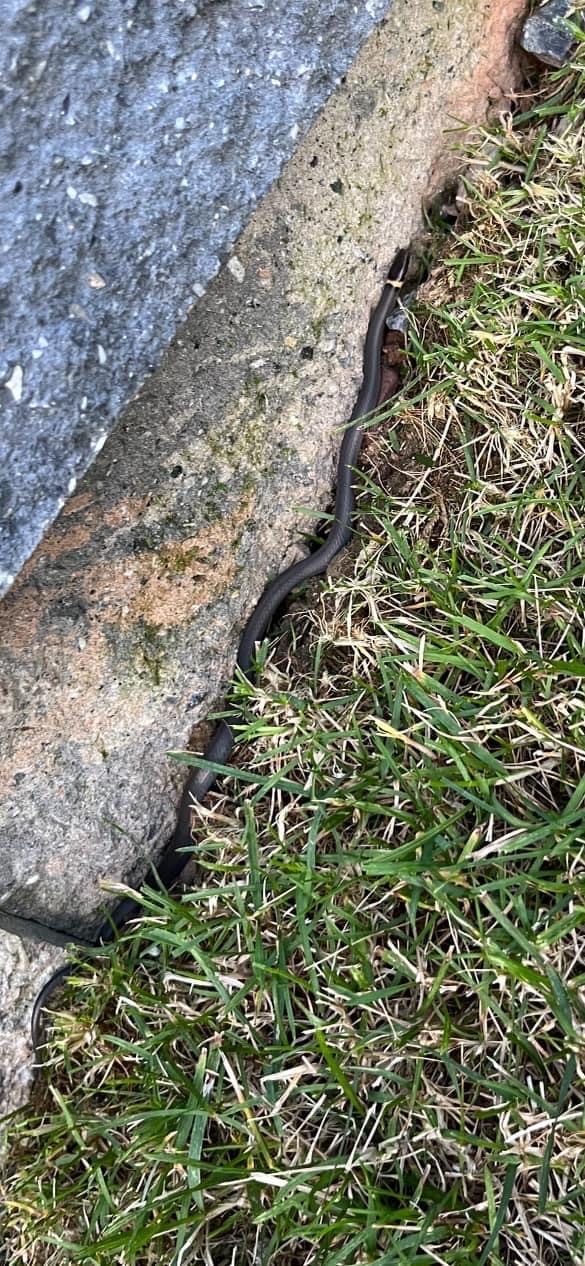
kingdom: Animalia
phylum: Chordata
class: Squamata
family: Colubridae
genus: Diadophis
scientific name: Diadophis punctatus
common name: Ringneck snake
